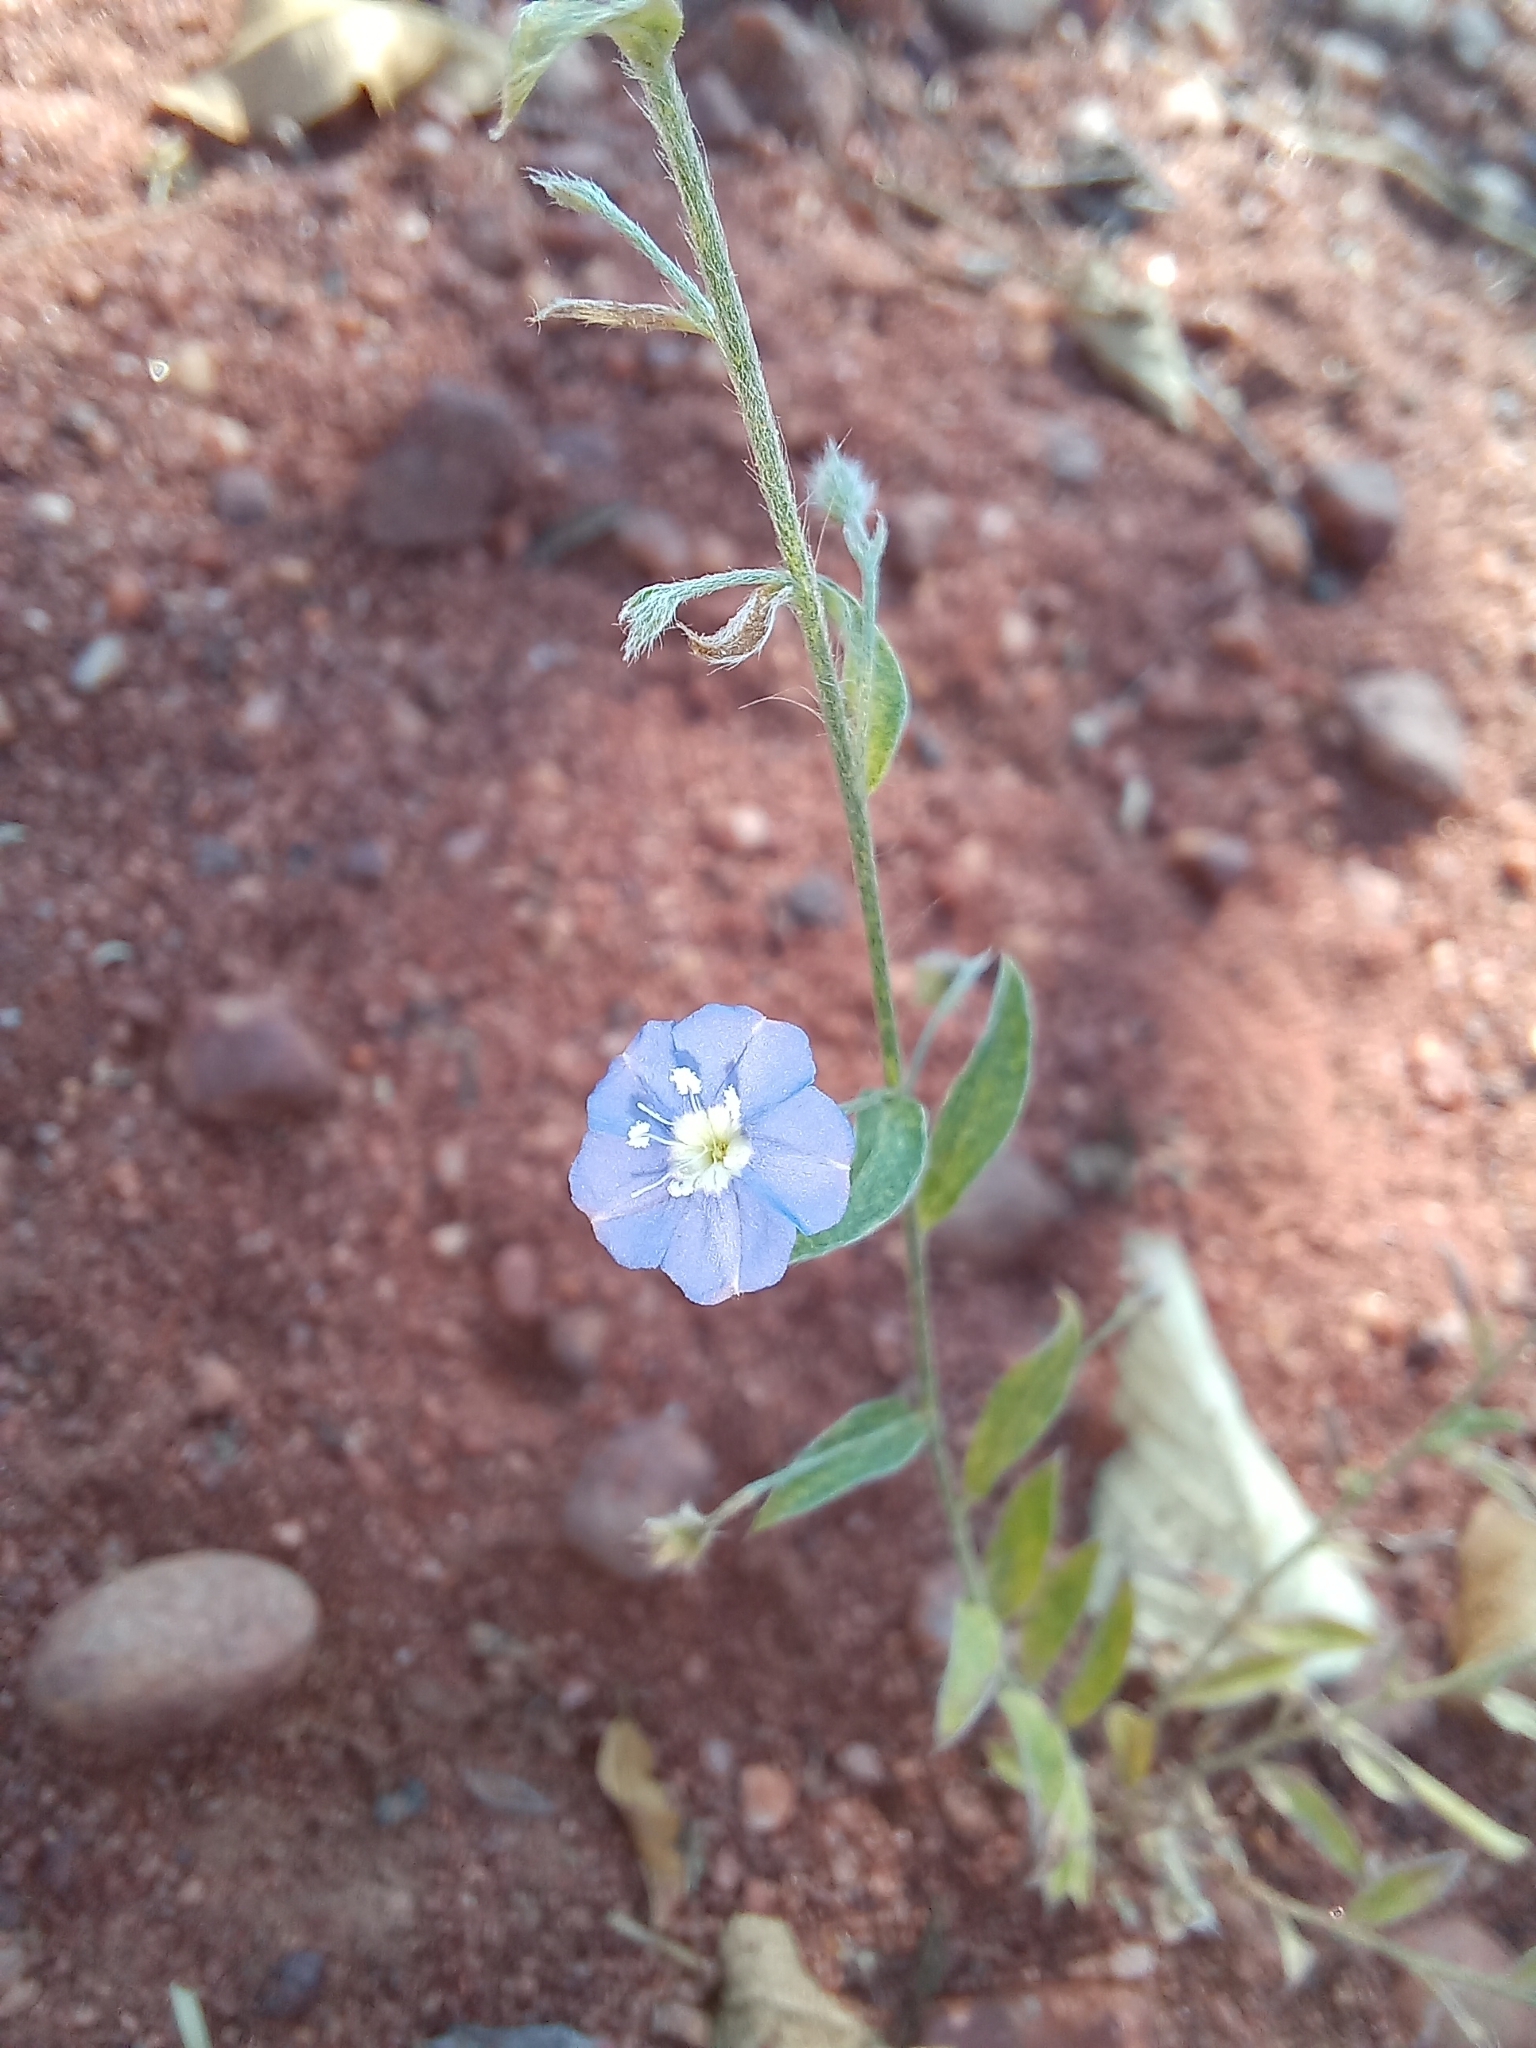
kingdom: Plantae
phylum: Tracheophyta
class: Magnoliopsida
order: Solanales
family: Convolvulaceae
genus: Evolvulus
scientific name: Evolvulus alsinoides
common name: Slender dwarf morning-glory
